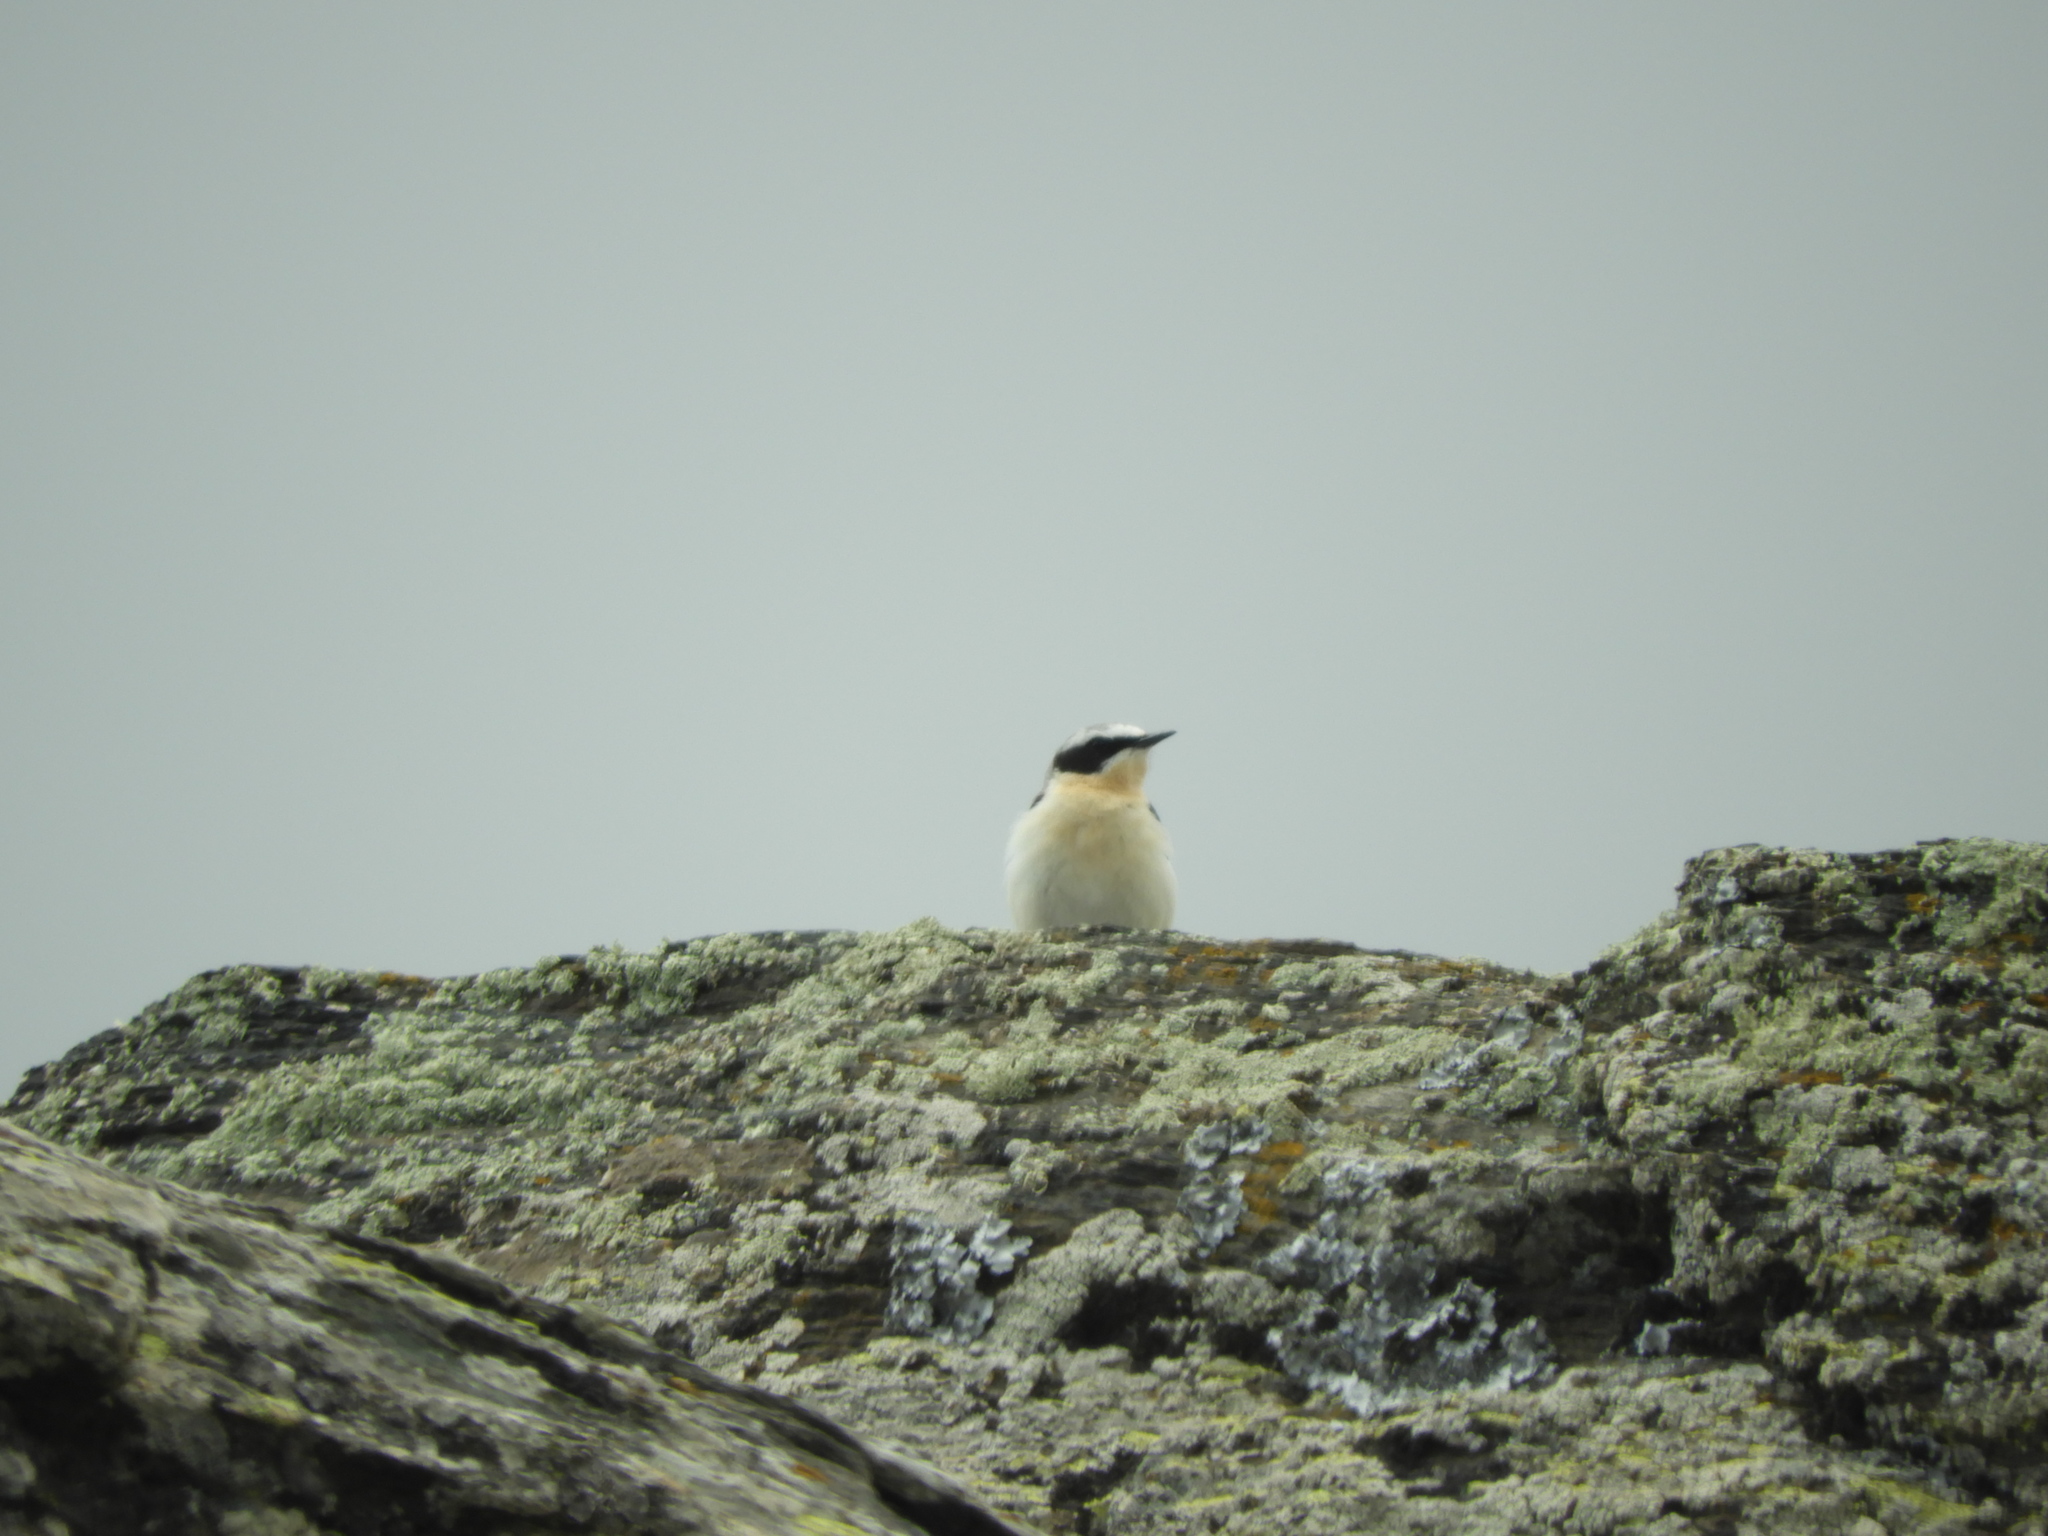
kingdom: Animalia
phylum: Chordata
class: Aves
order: Passeriformes
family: Muscicapidae
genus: Oenanthe
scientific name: Oenanthe hispanica
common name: Black-eared wheatear
